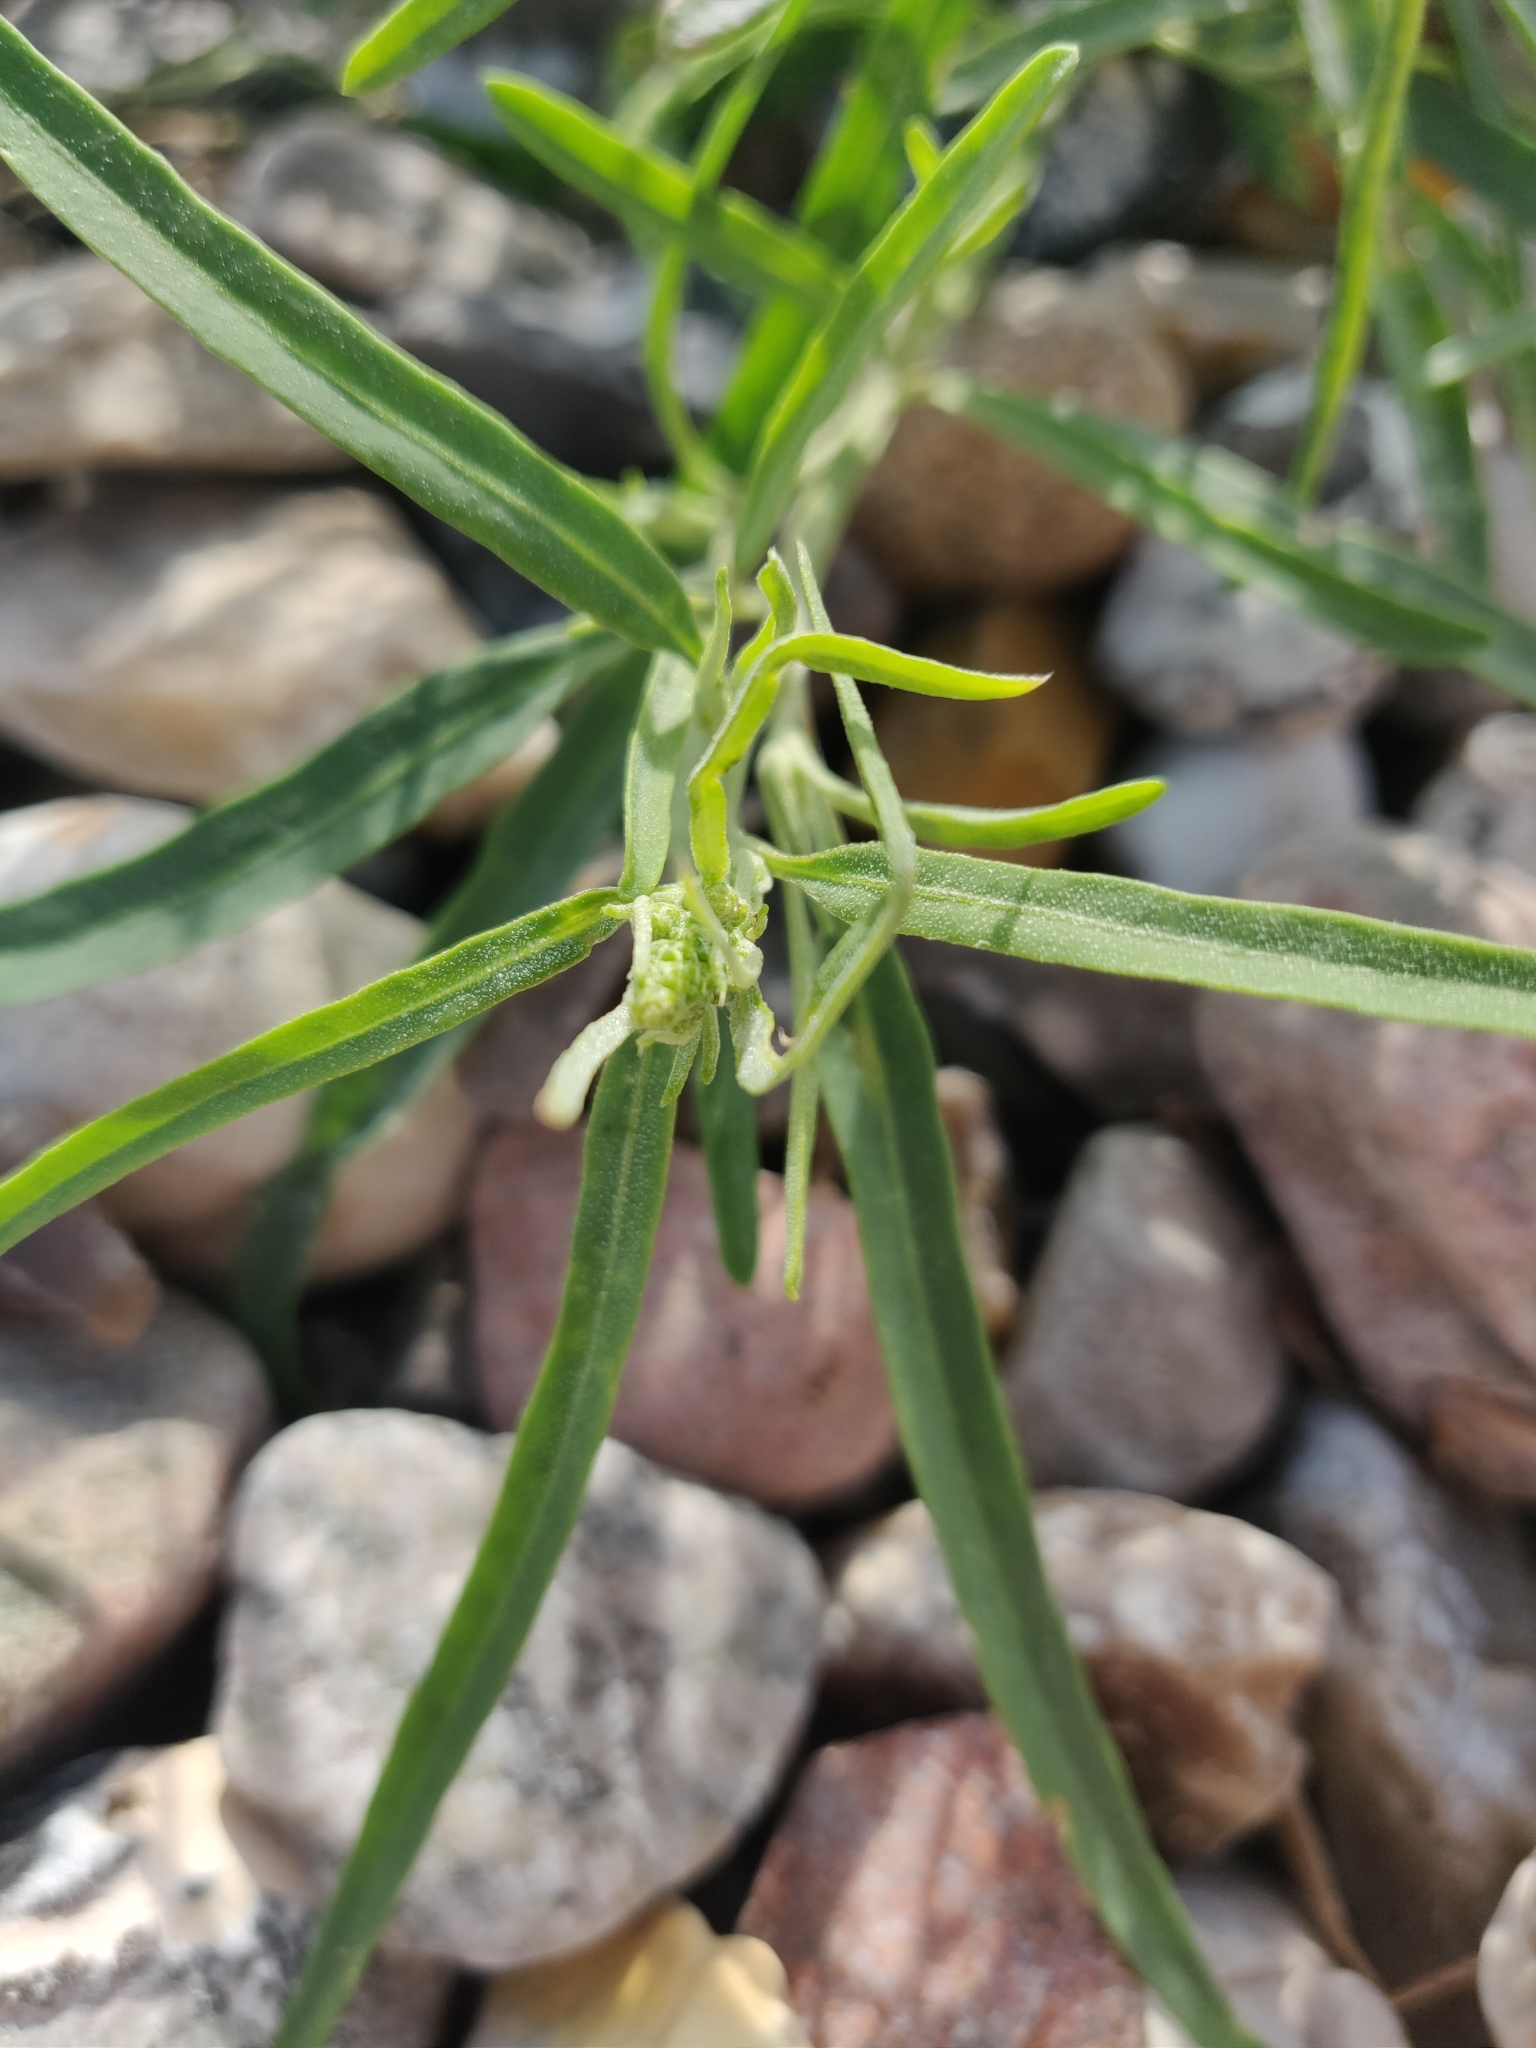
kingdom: Plantae
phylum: Tracheophyta
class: Magnoliopsida
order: Asterales
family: Asteraceae
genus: Senecio
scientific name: Senecio inaequidens
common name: Narrow-leaved ragwort
